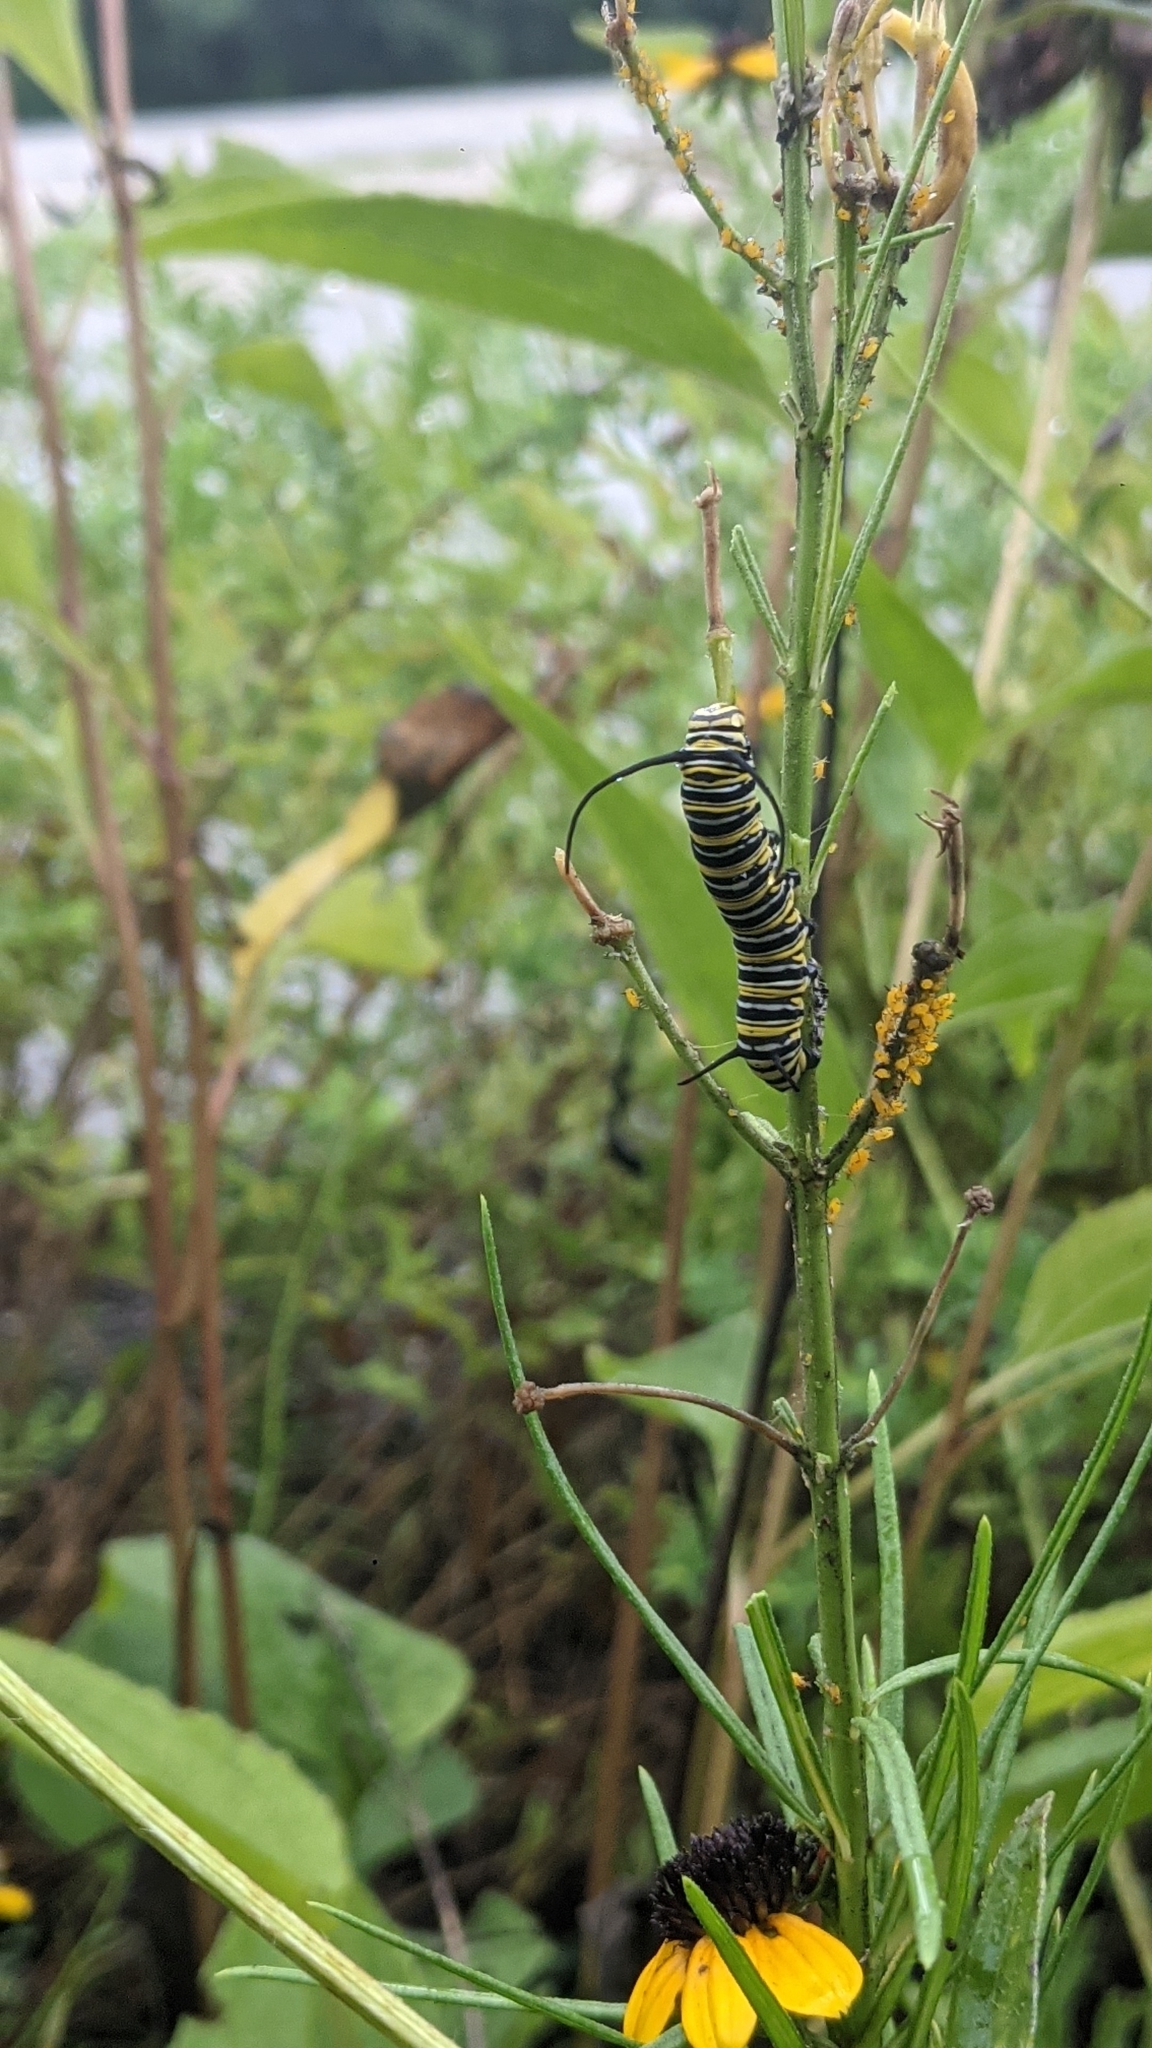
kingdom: Animalia
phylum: Arthropoda
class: Insecta
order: Lepidoptera
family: Nymphalidae
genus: Danaus
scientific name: Danaus plexippus
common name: Monarch
